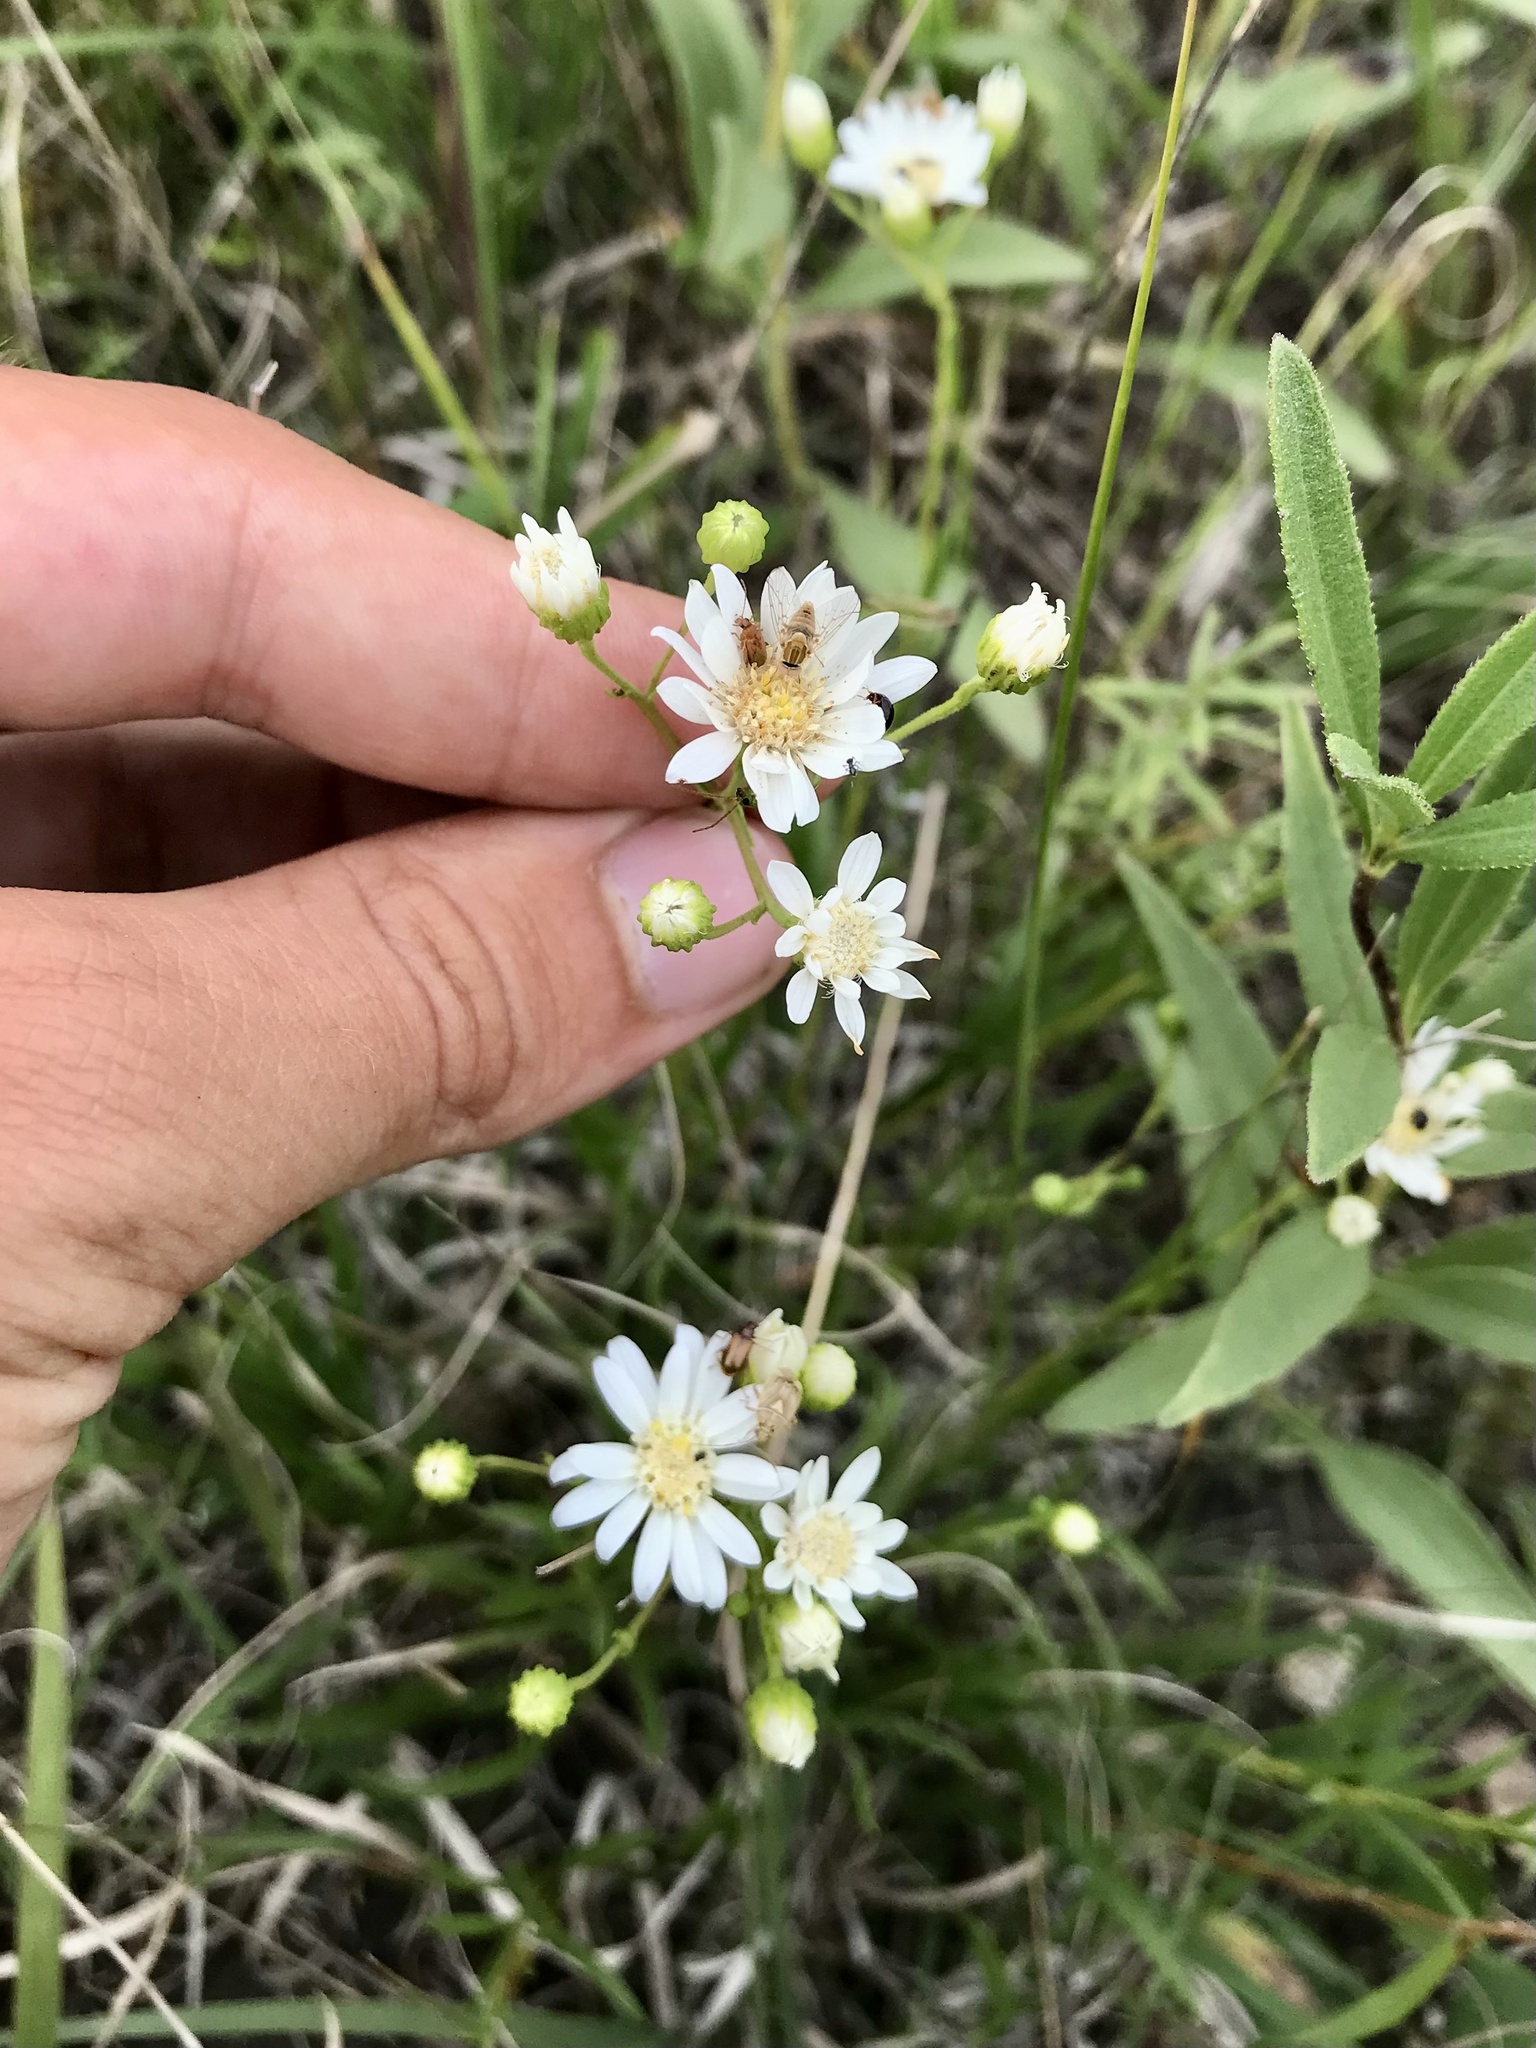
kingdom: Plantae
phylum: Tracheophyta
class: Magnoliopsida
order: Asterales
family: Asteraceae
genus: Solidago
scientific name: Solidago ptarmicoides
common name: White flat-top goldenrod
